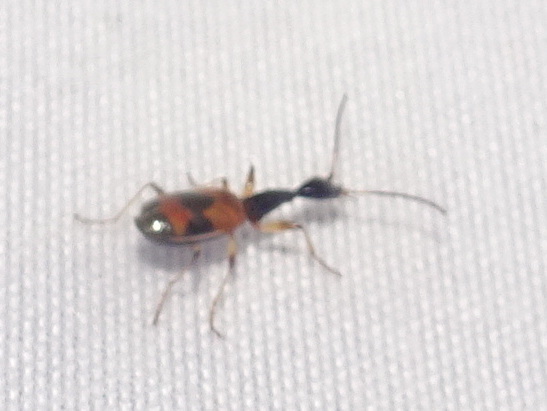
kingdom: Animalia
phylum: Arthropoda
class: Insecta
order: Coleoptera
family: Carabidae
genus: Colliuris
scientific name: Colliuris pensylvanica
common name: Long-necked ground beetle
